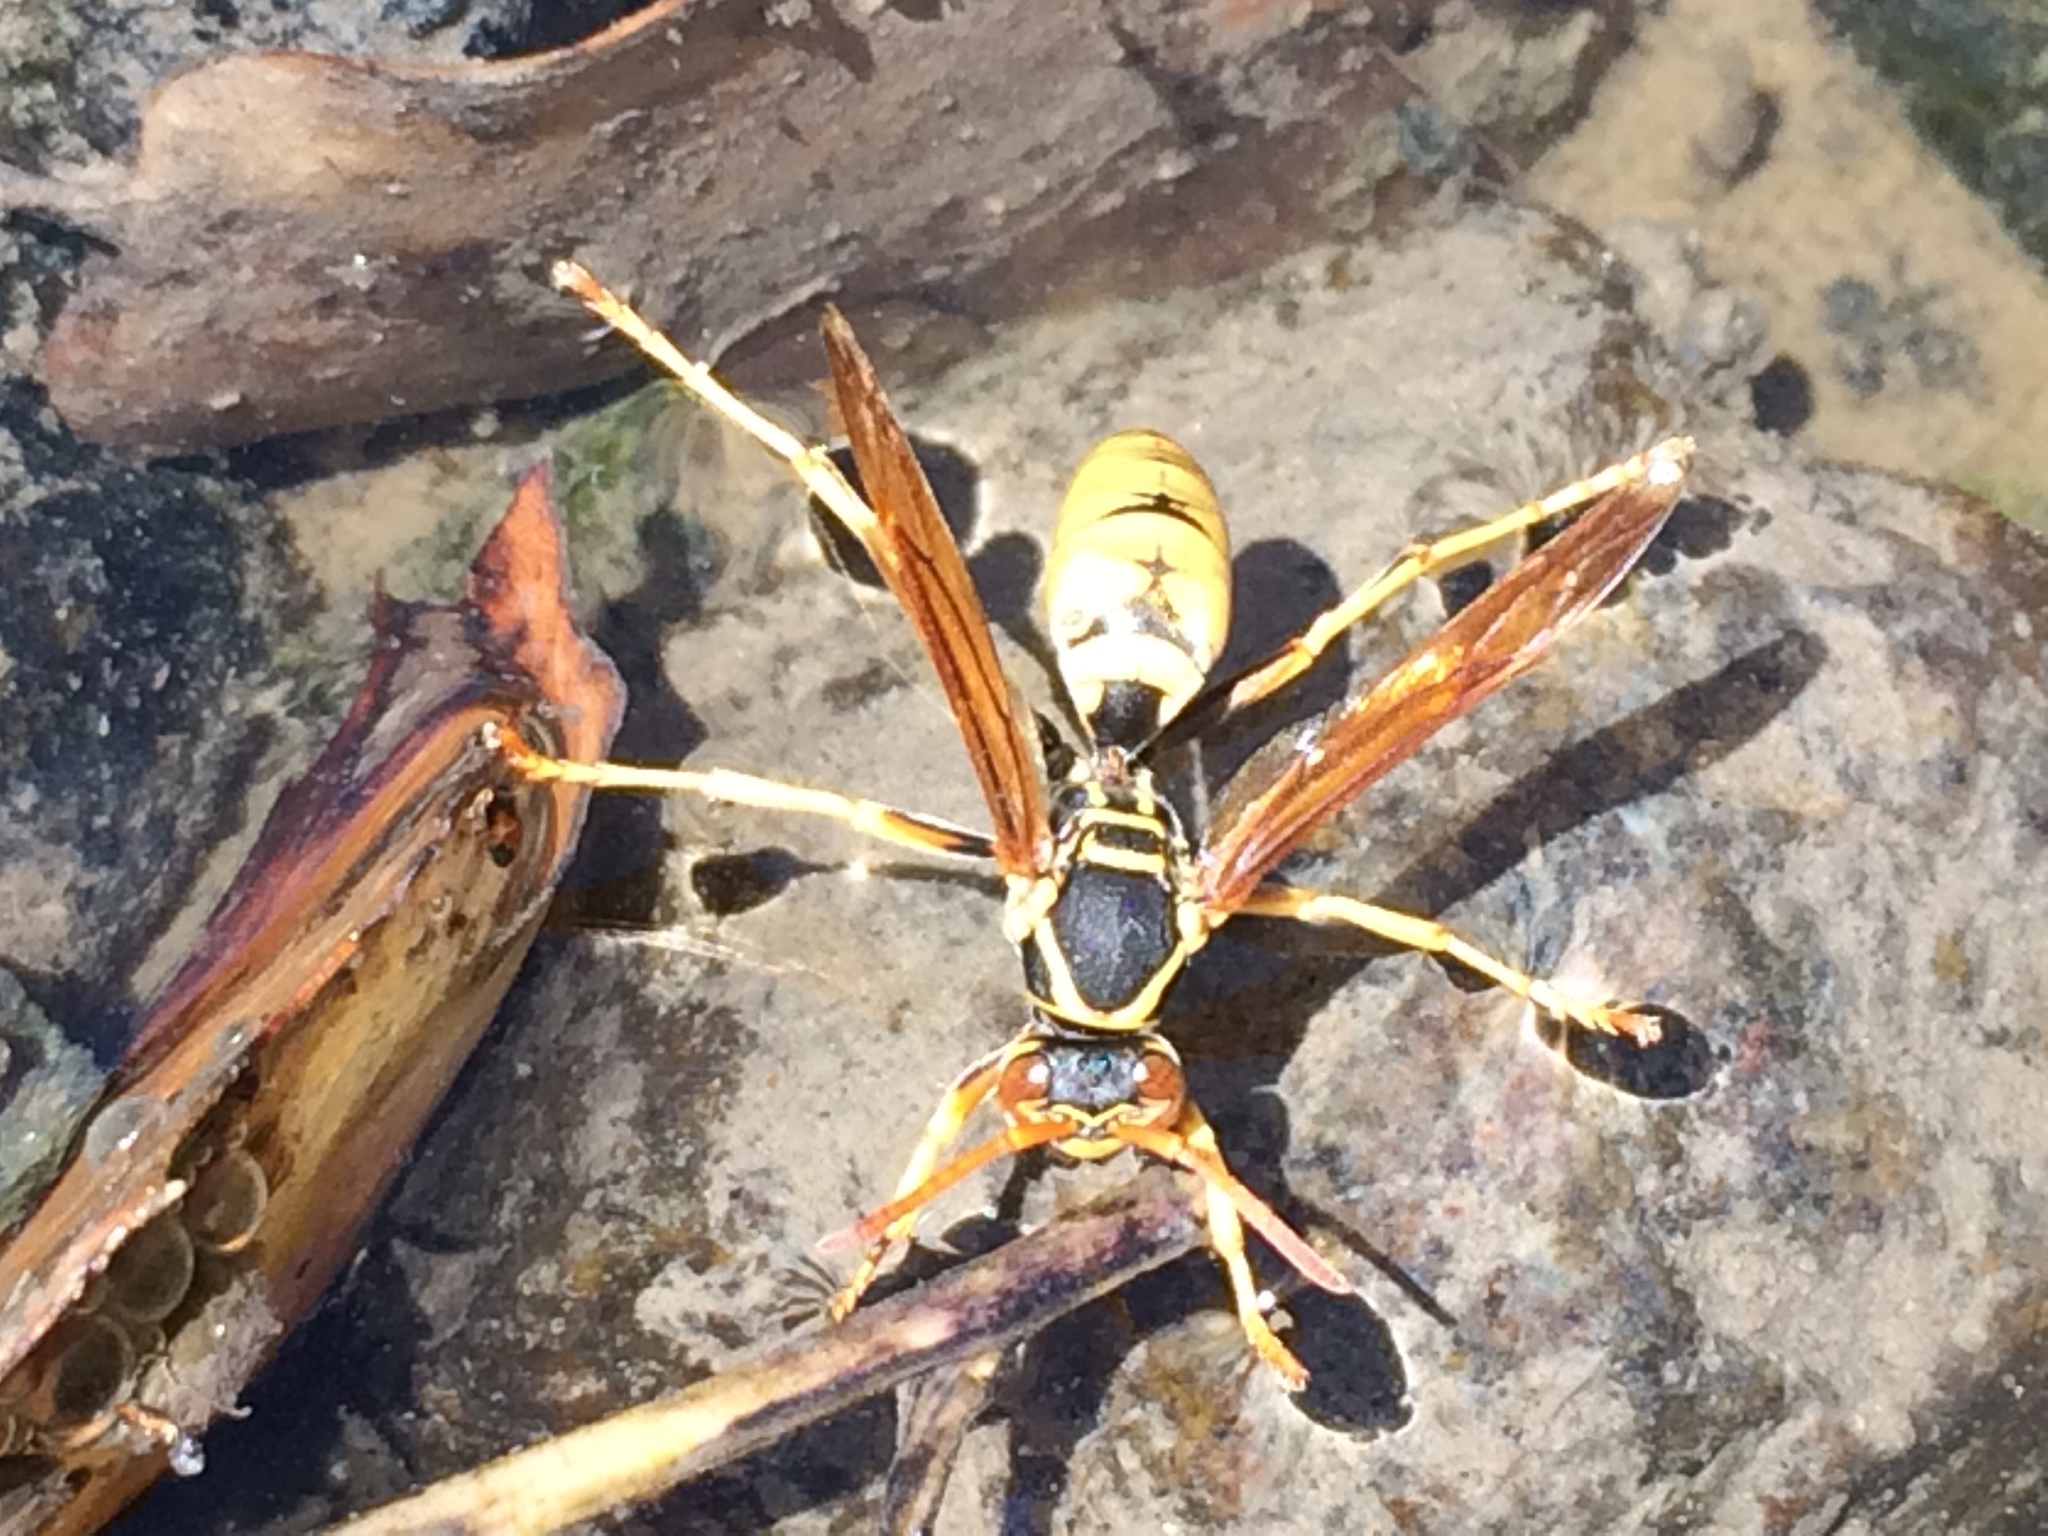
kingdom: Animalia
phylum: Arthropoda
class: Insecta
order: Hymenoptera
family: Eumenidae
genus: Polistes
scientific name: Polistes aurifer
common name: Paper wasp
